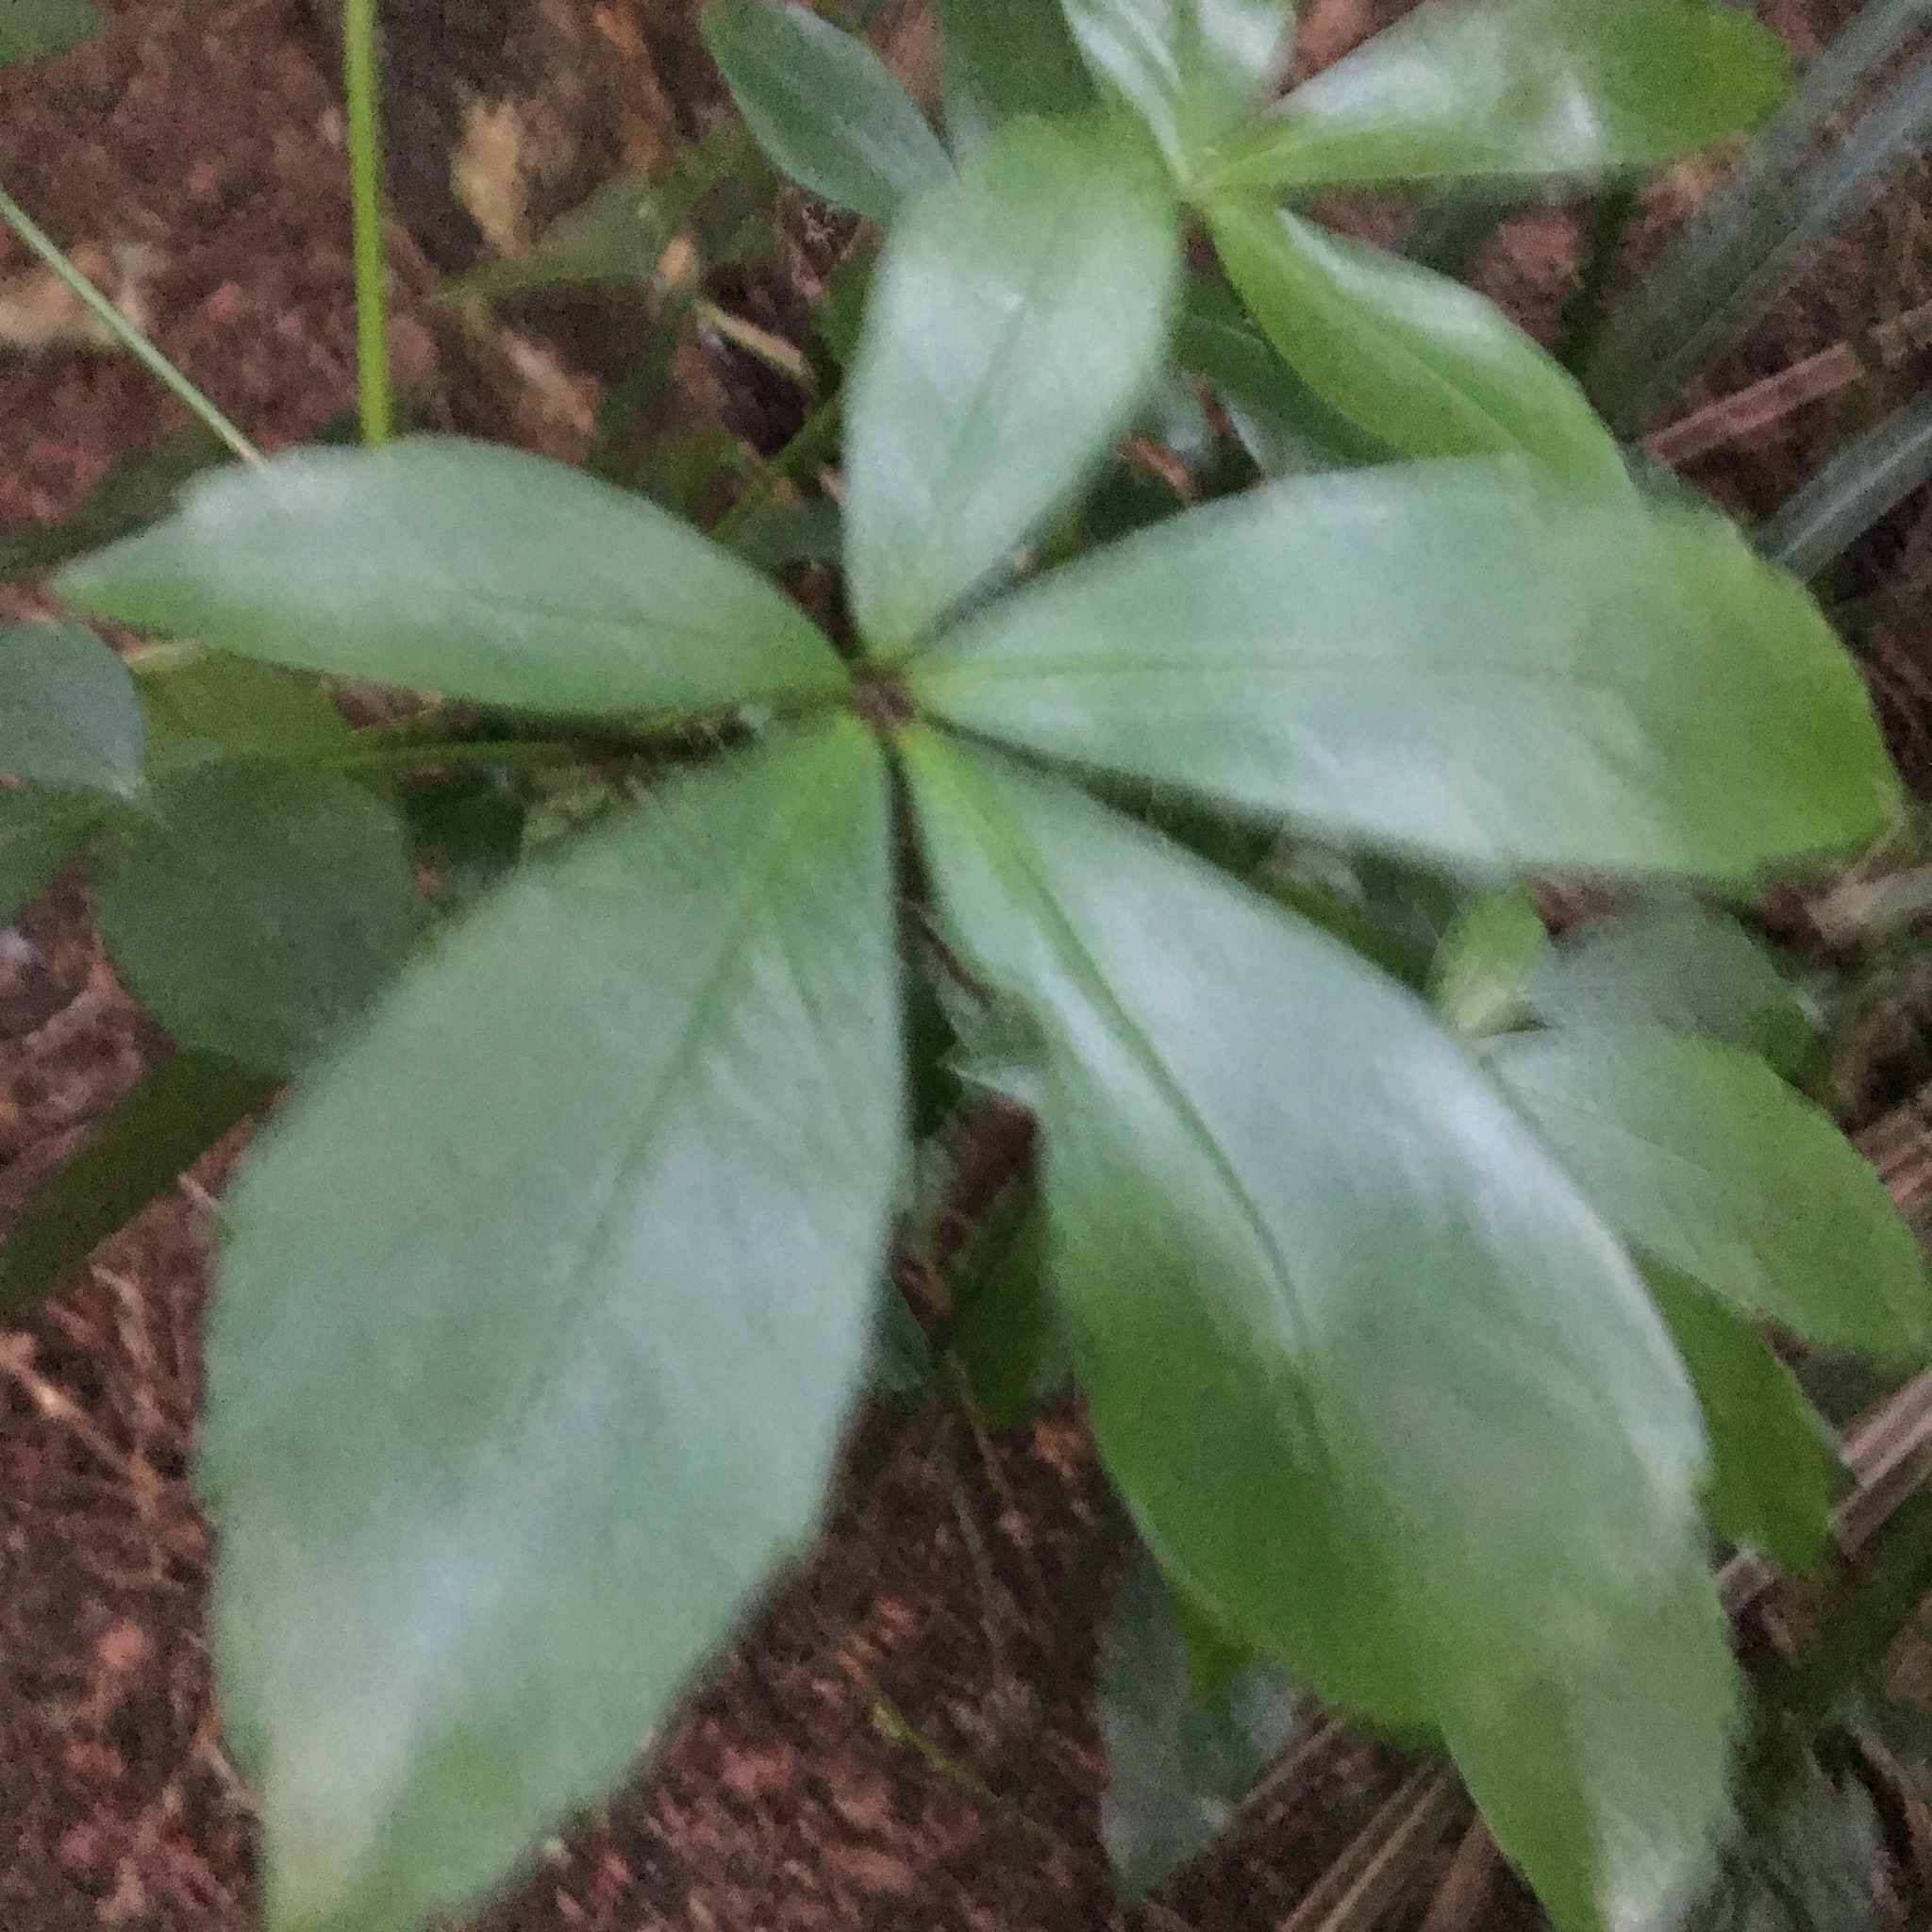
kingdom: Plantae
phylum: Tracheophyta
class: Magnoliopsida
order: Apiales
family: Araliaceae
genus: Pseudopanax
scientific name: Pseudopanax lessonii
